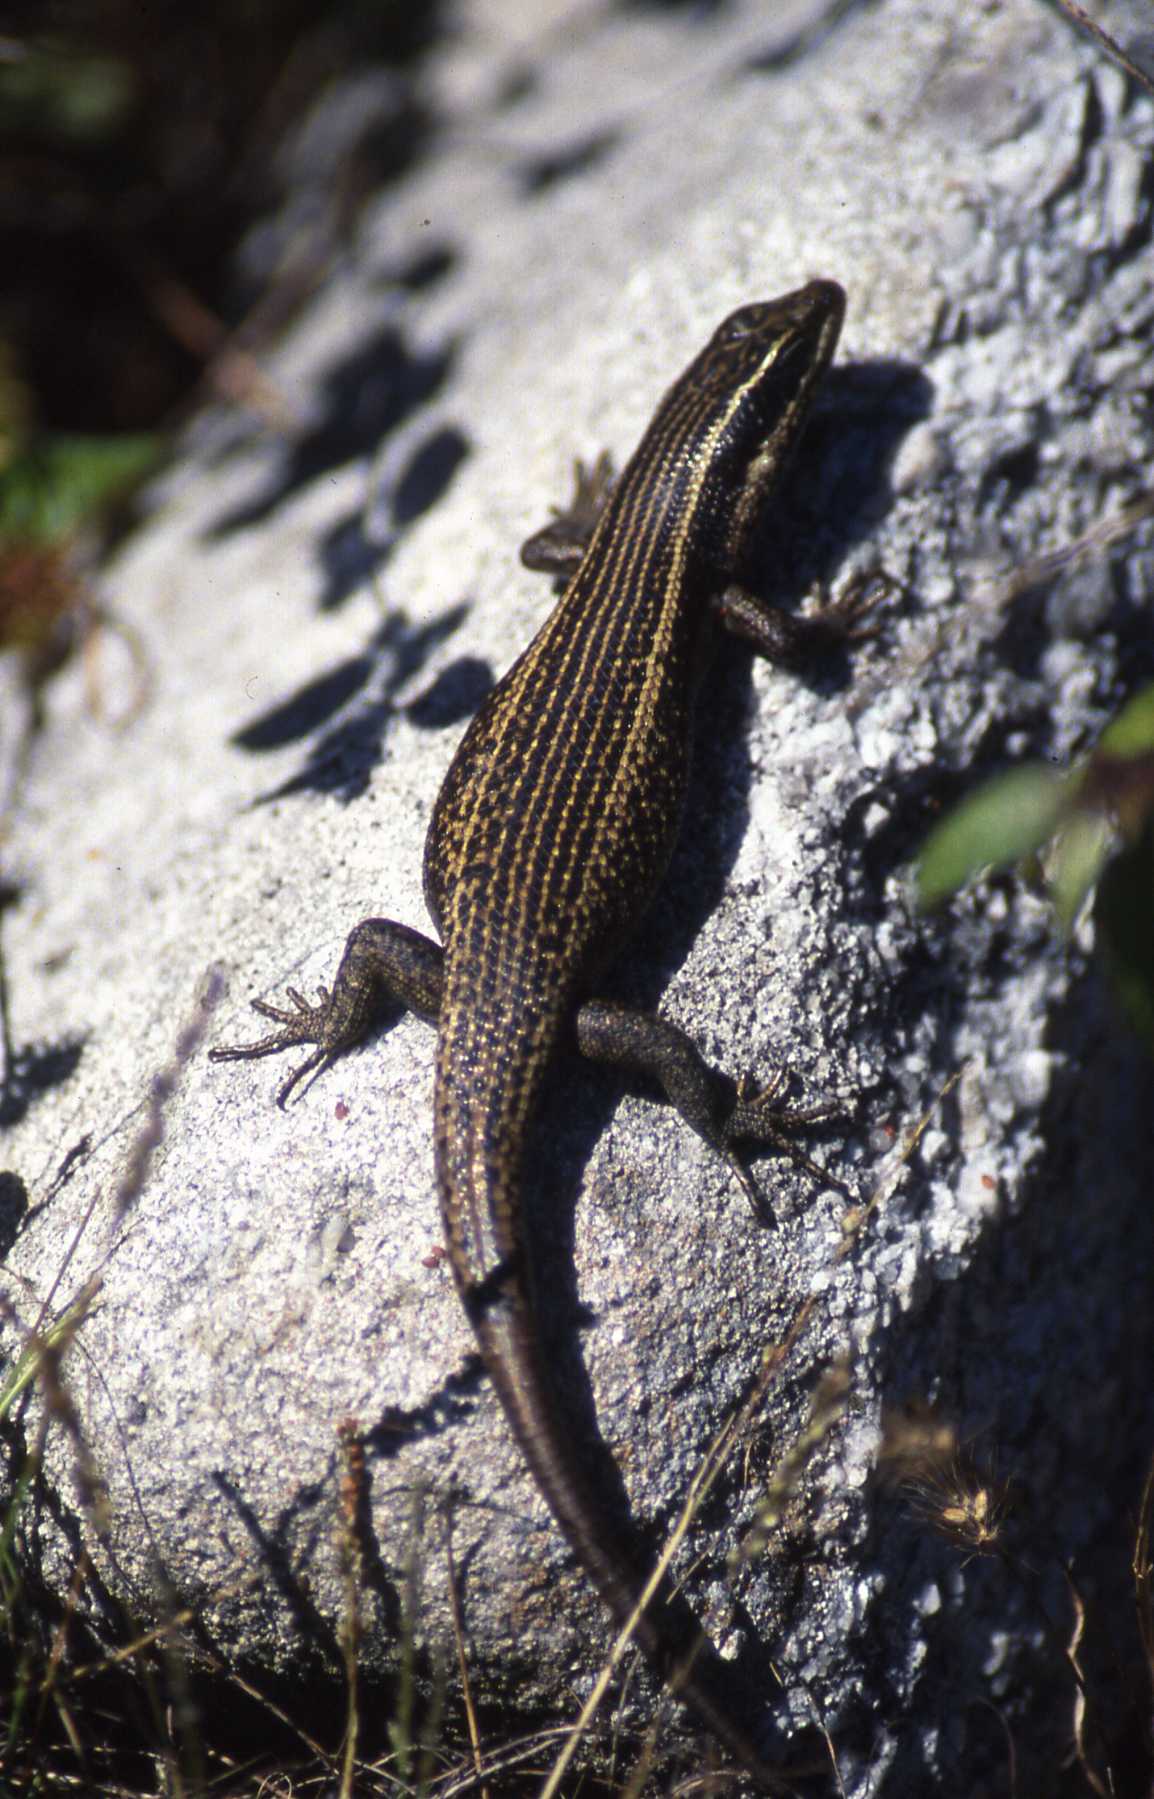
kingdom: Animalia
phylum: Chordata
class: Squamata
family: Scincidae
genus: Trachylepis
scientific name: Trachylepis punctatissima
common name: Montane speckled skink
